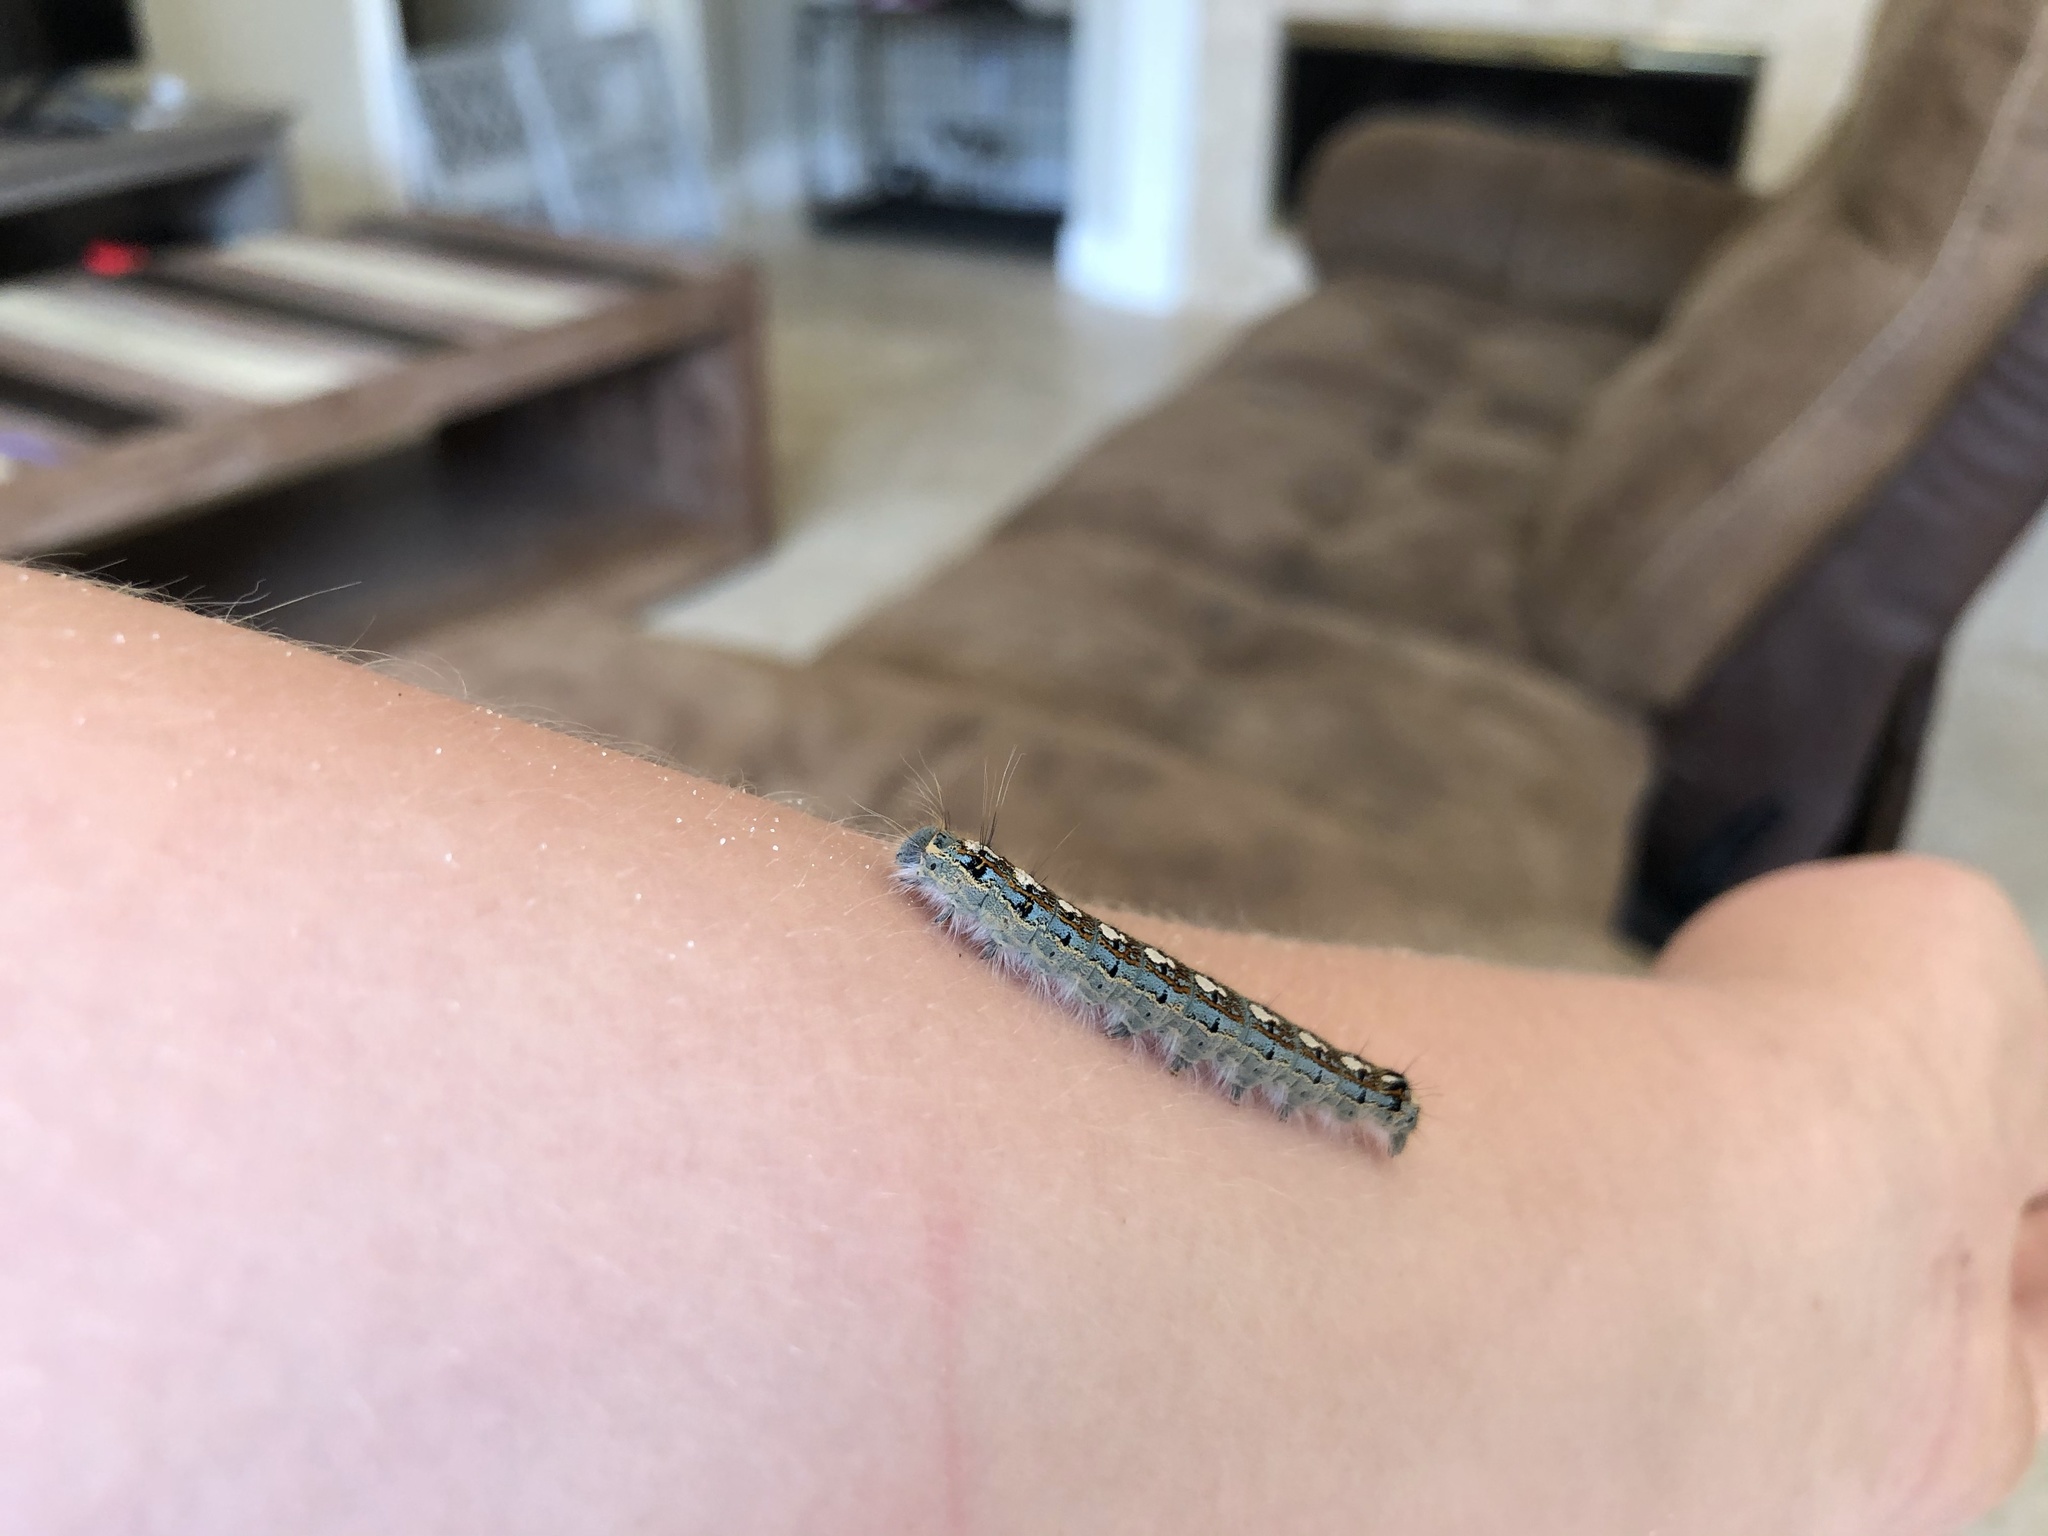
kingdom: Animalia
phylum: Arthropoda
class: Insecta
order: Lepidoptera
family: Lasiocampidae
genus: Malacosoma
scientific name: Malacosoma disstria
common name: Forest tent caterpillar
